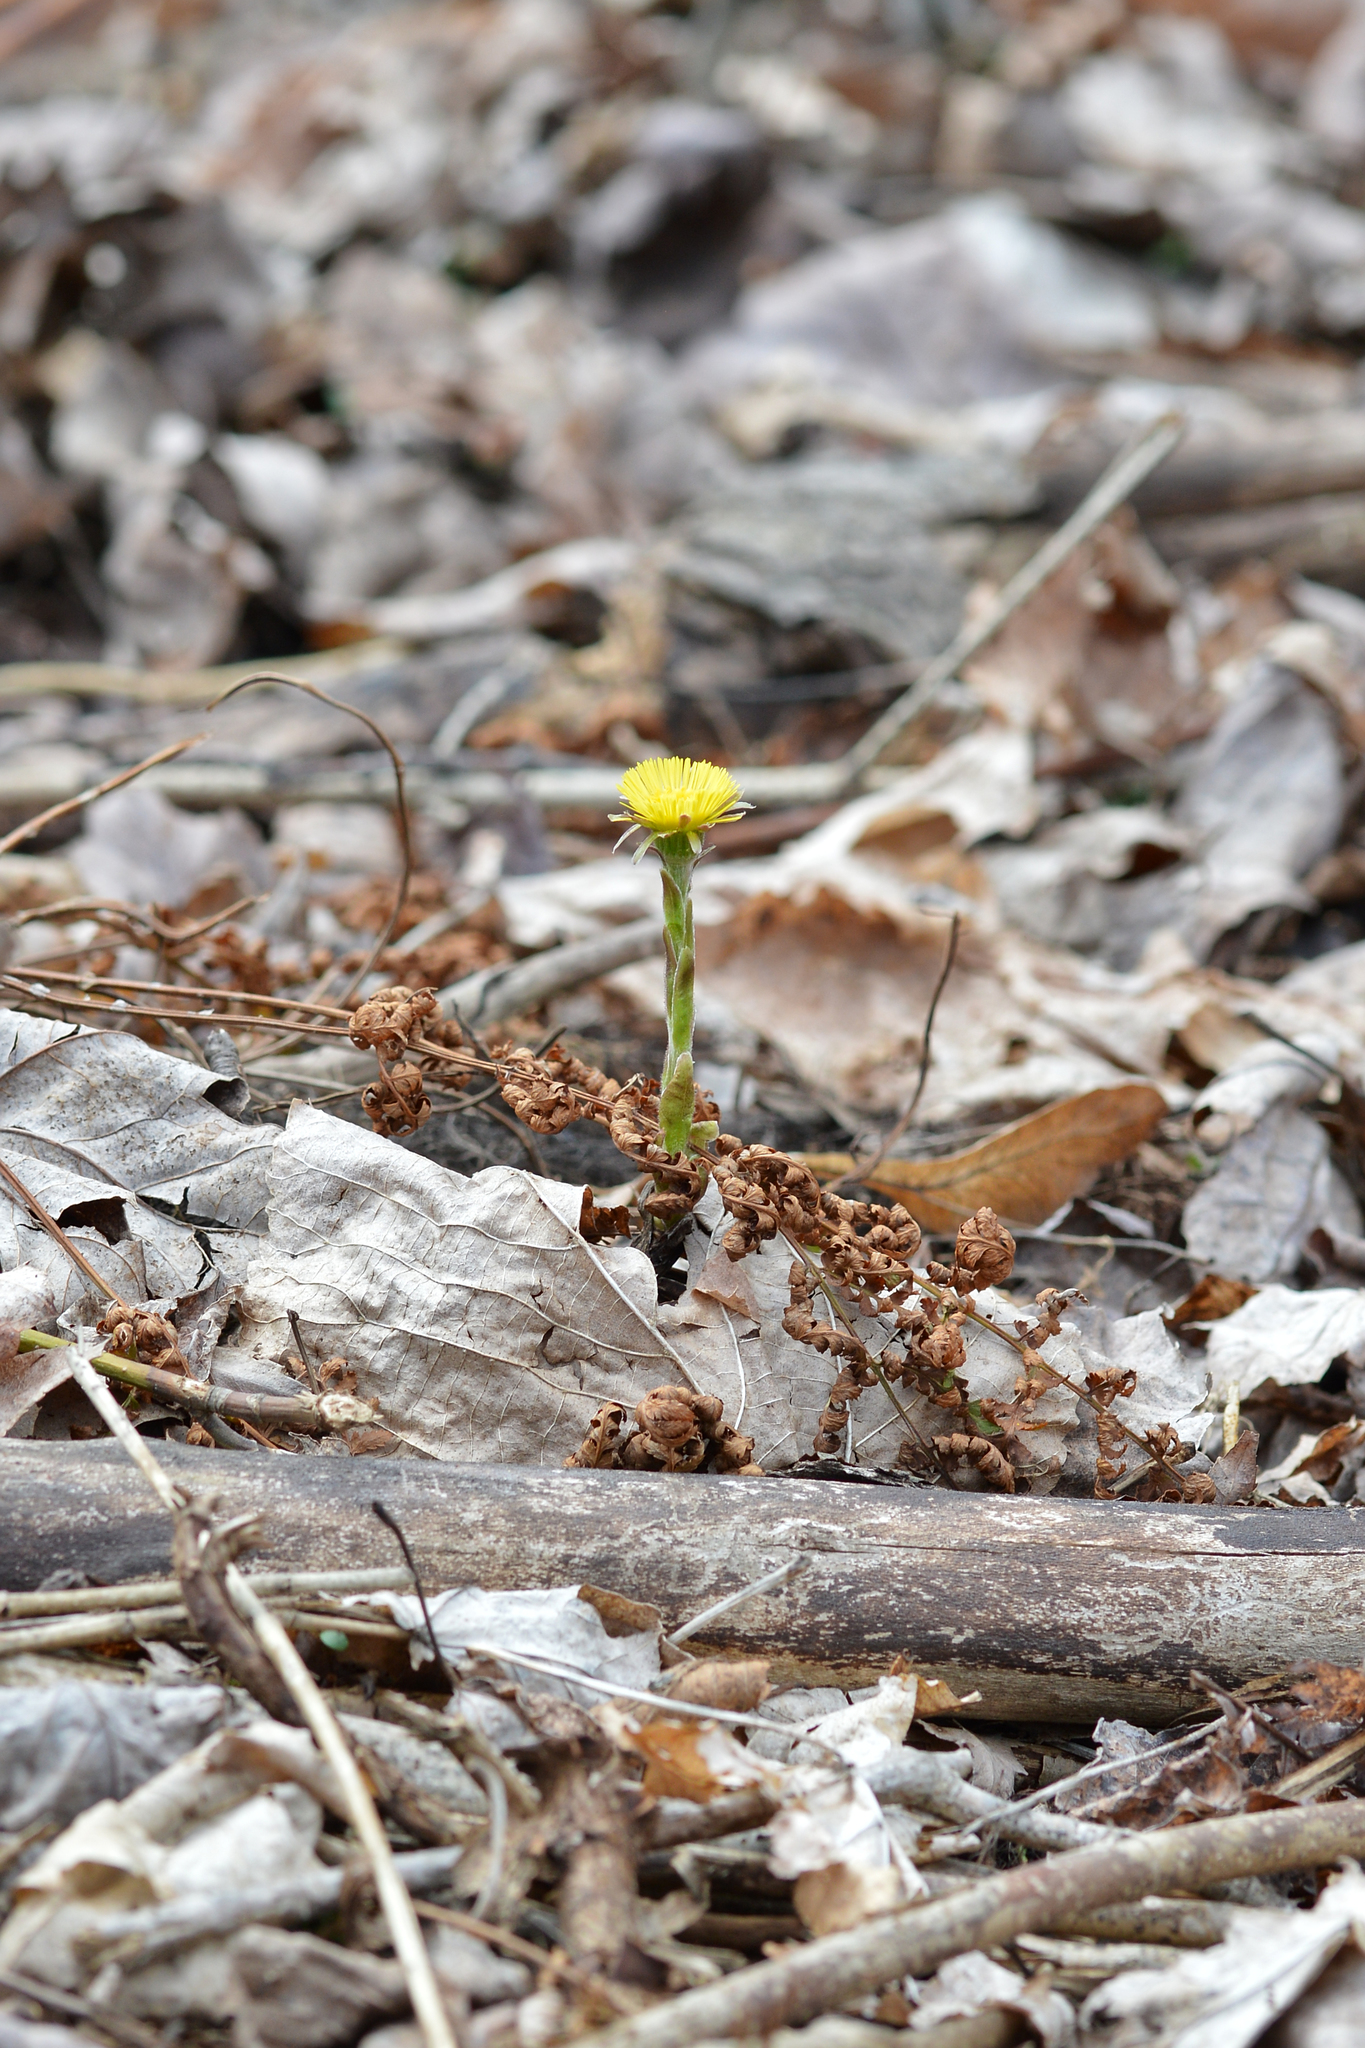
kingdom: Plantae
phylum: Tracheophyta
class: Magnoliopsida
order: Asterales
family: Asteraceae
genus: Tussilago
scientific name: Tussilago farfara
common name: Coltsfoot
